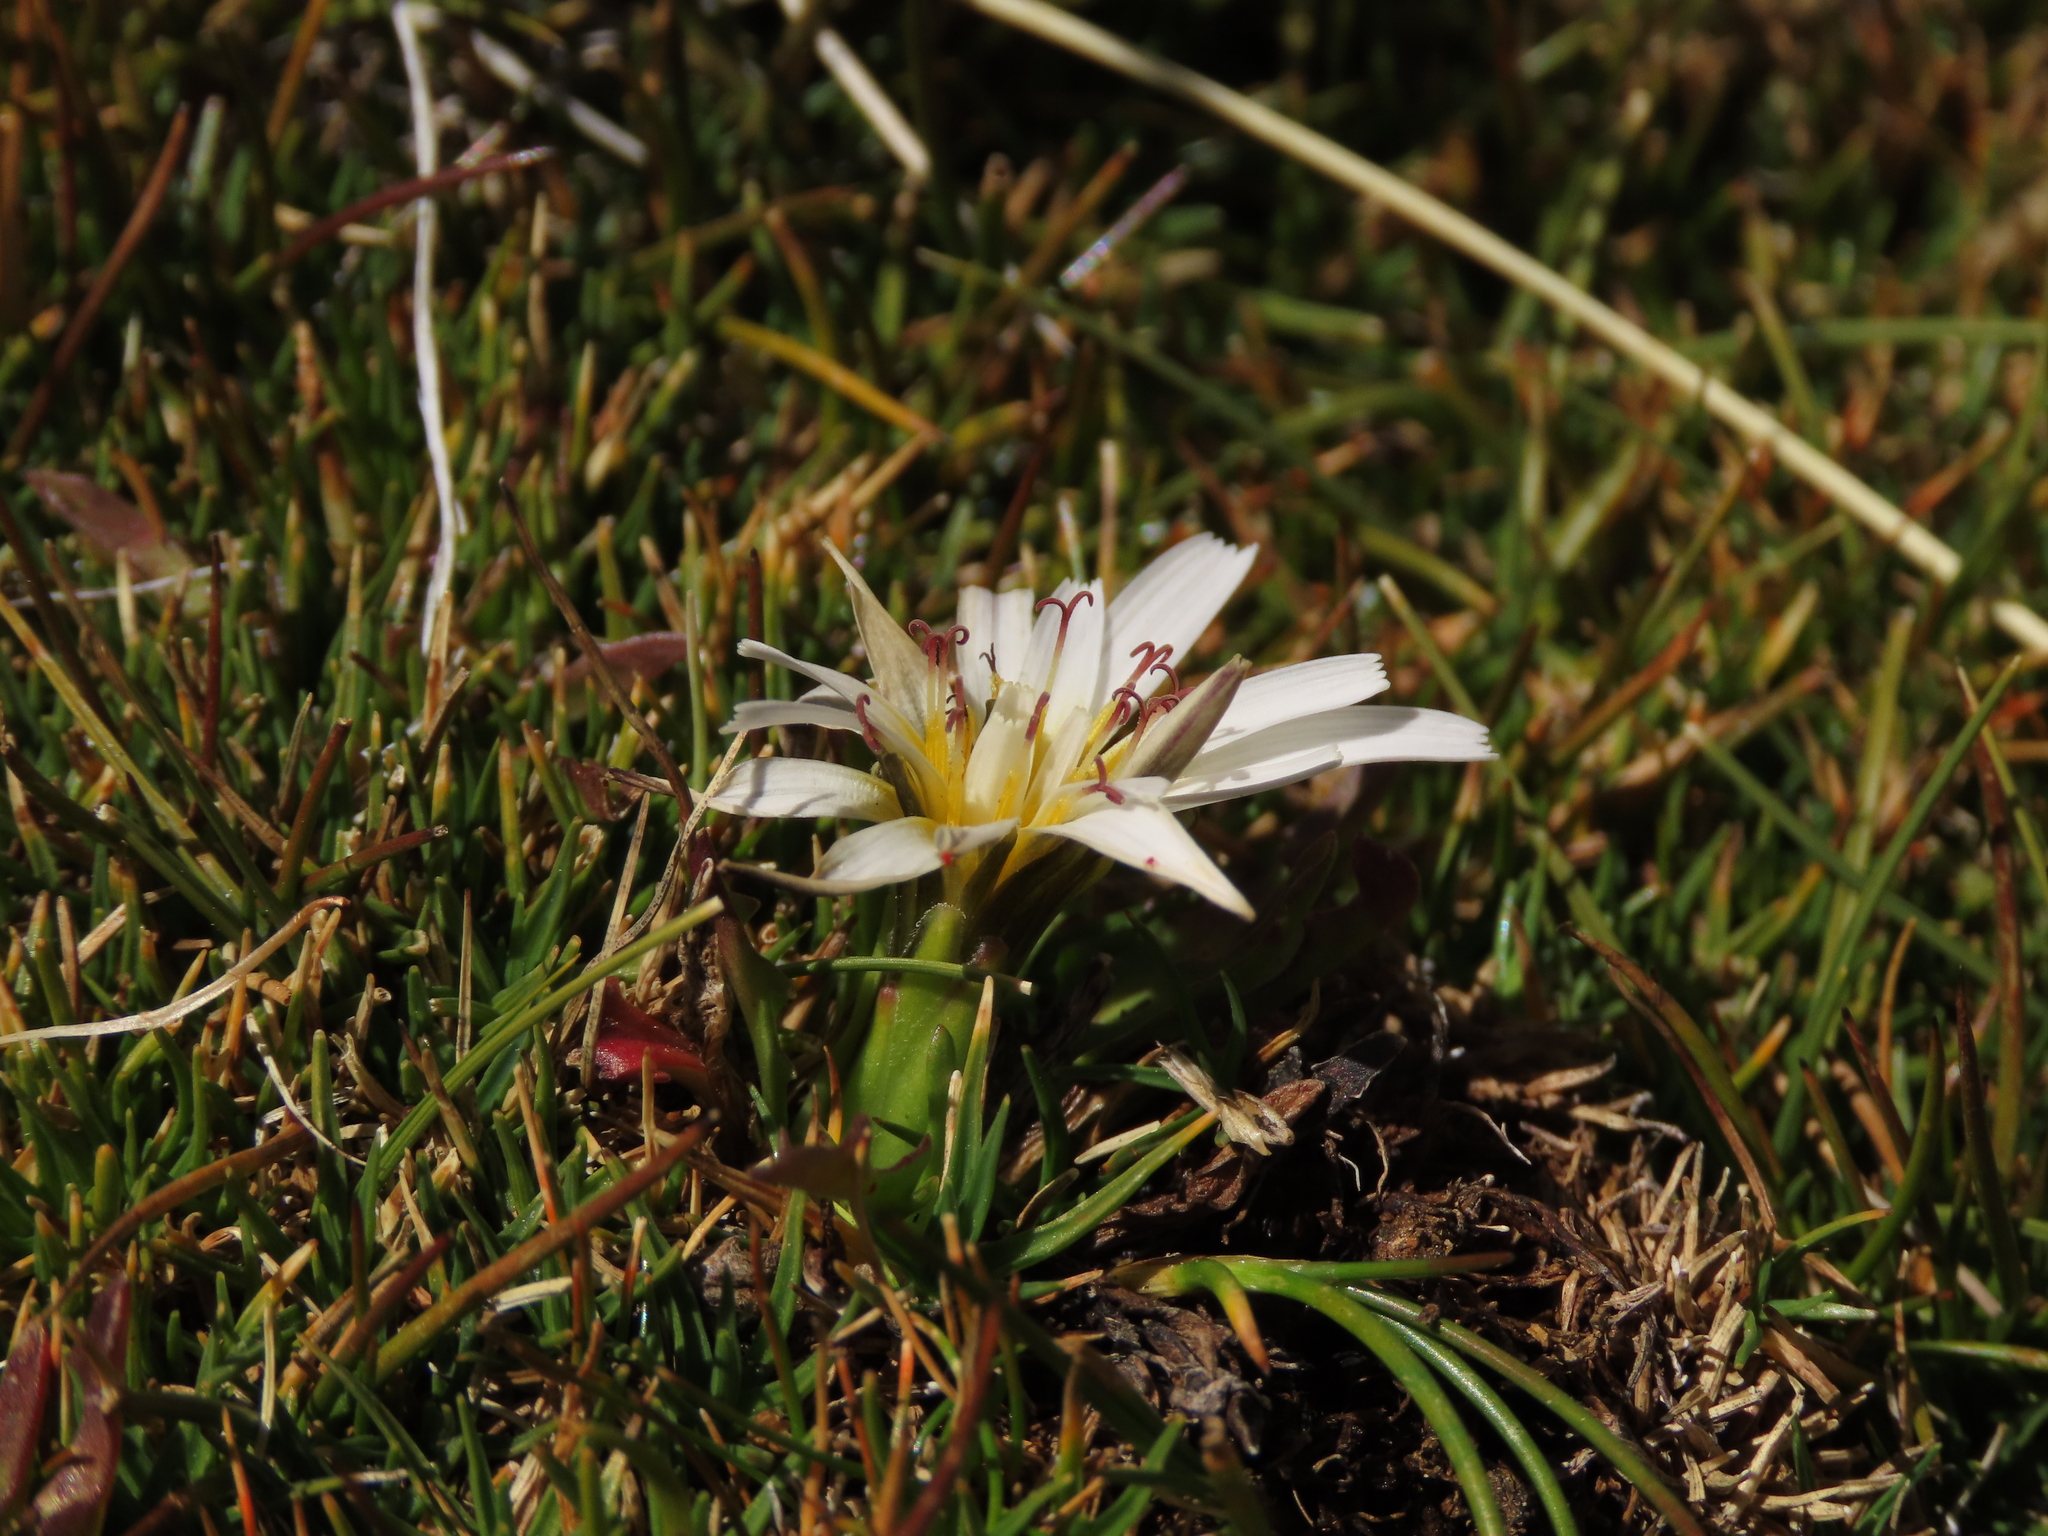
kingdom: Plantae
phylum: Tracheophyta
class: Magnoliopsida
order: Asterales
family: Asteraceae
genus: Hypochaeris
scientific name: Hypochaeris taraxacoides
